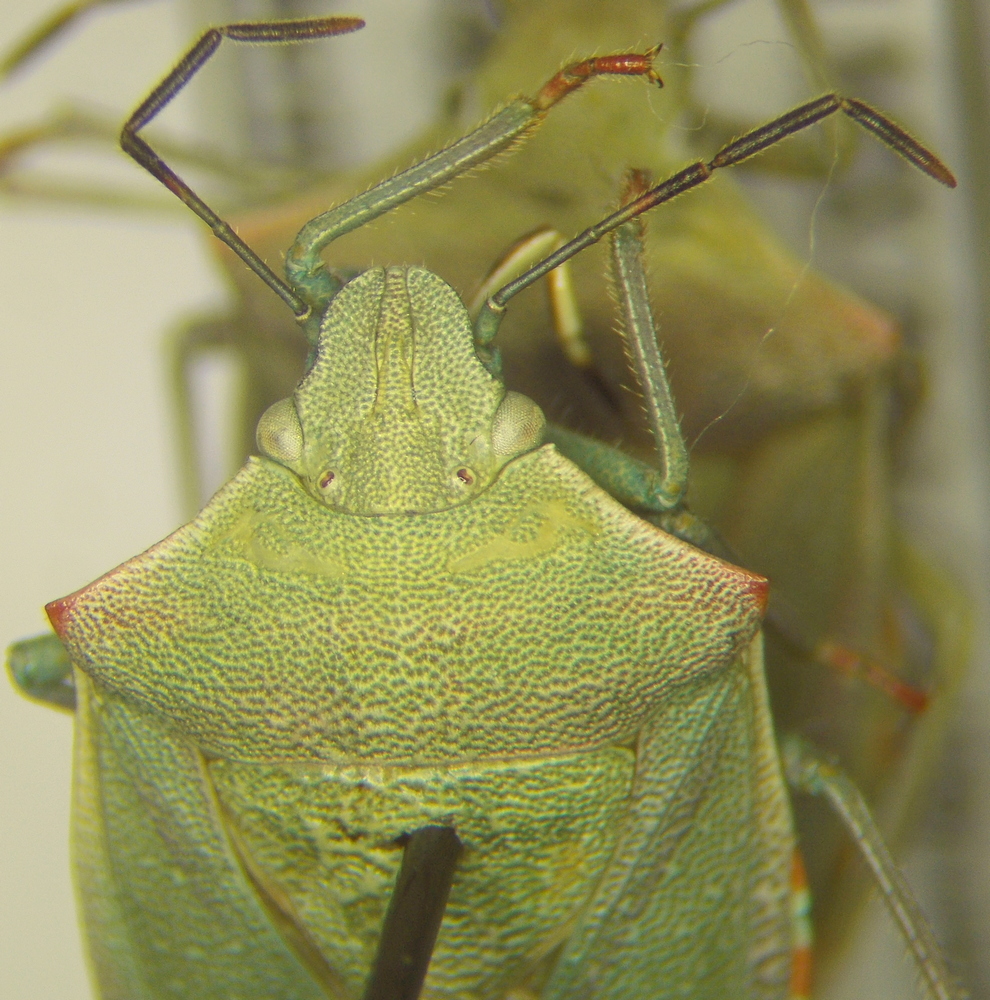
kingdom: Animalia
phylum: Arthropoda
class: Insecta
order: Hemiptera
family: Pentatomidae
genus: Thyanta
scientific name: Thyanta custator
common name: Stink bug
